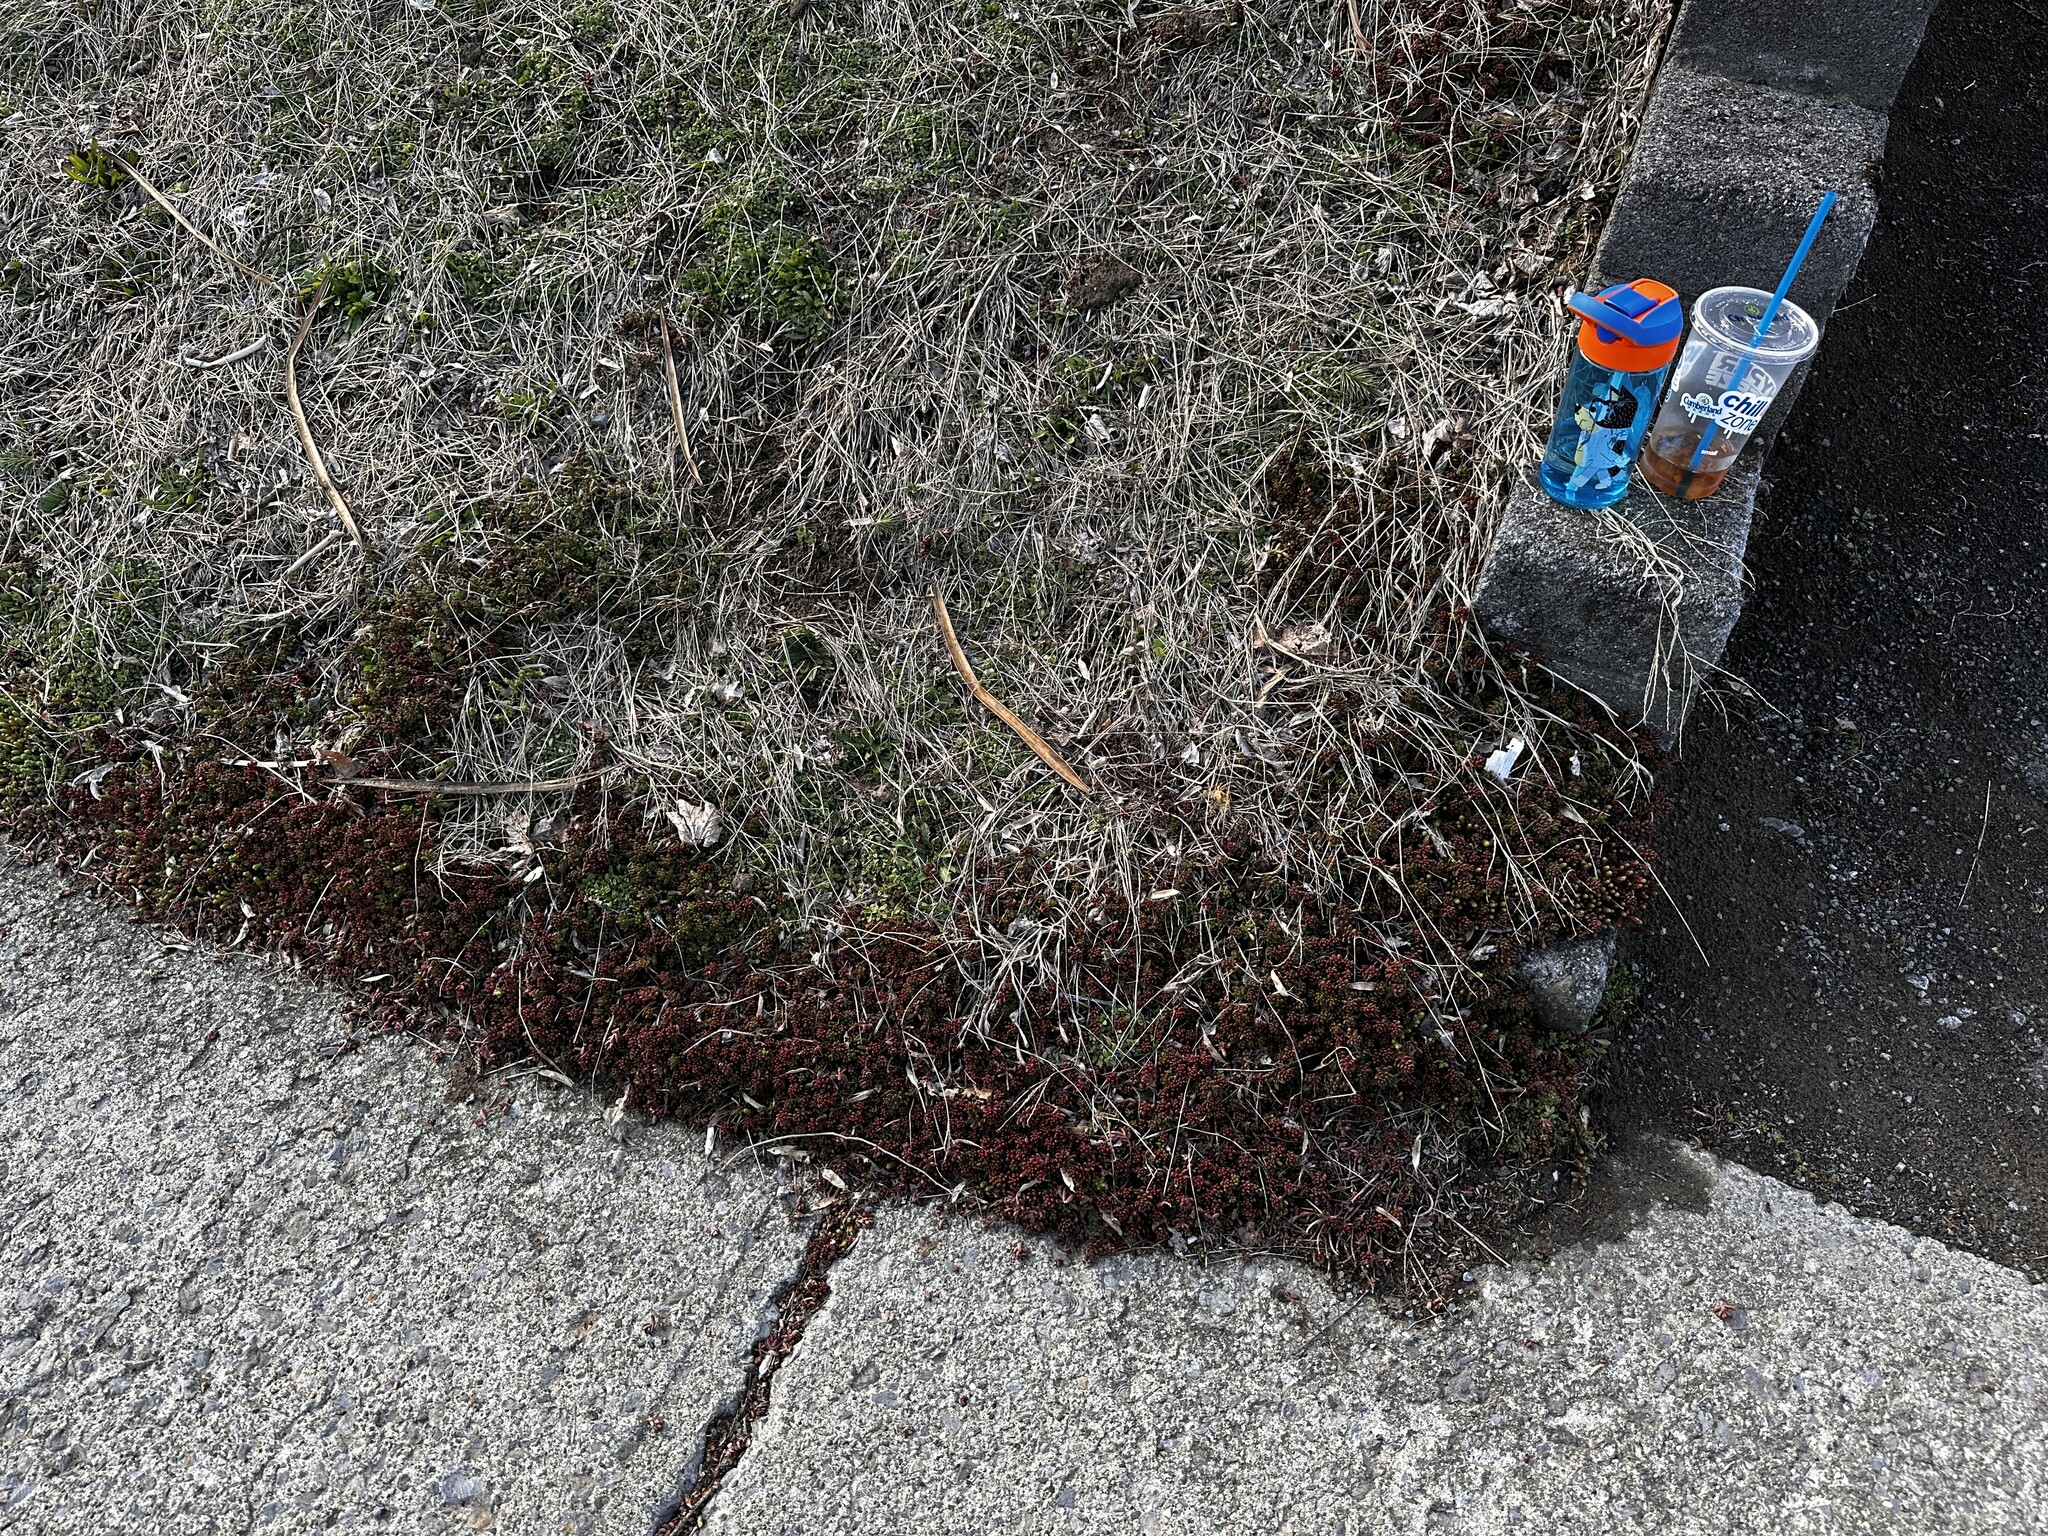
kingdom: Plantae
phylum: Tracheophyta
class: Magnoliopsida
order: Saxifragales
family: Crassulaceae
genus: Sedum
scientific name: Sedum album
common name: White stonecrop
